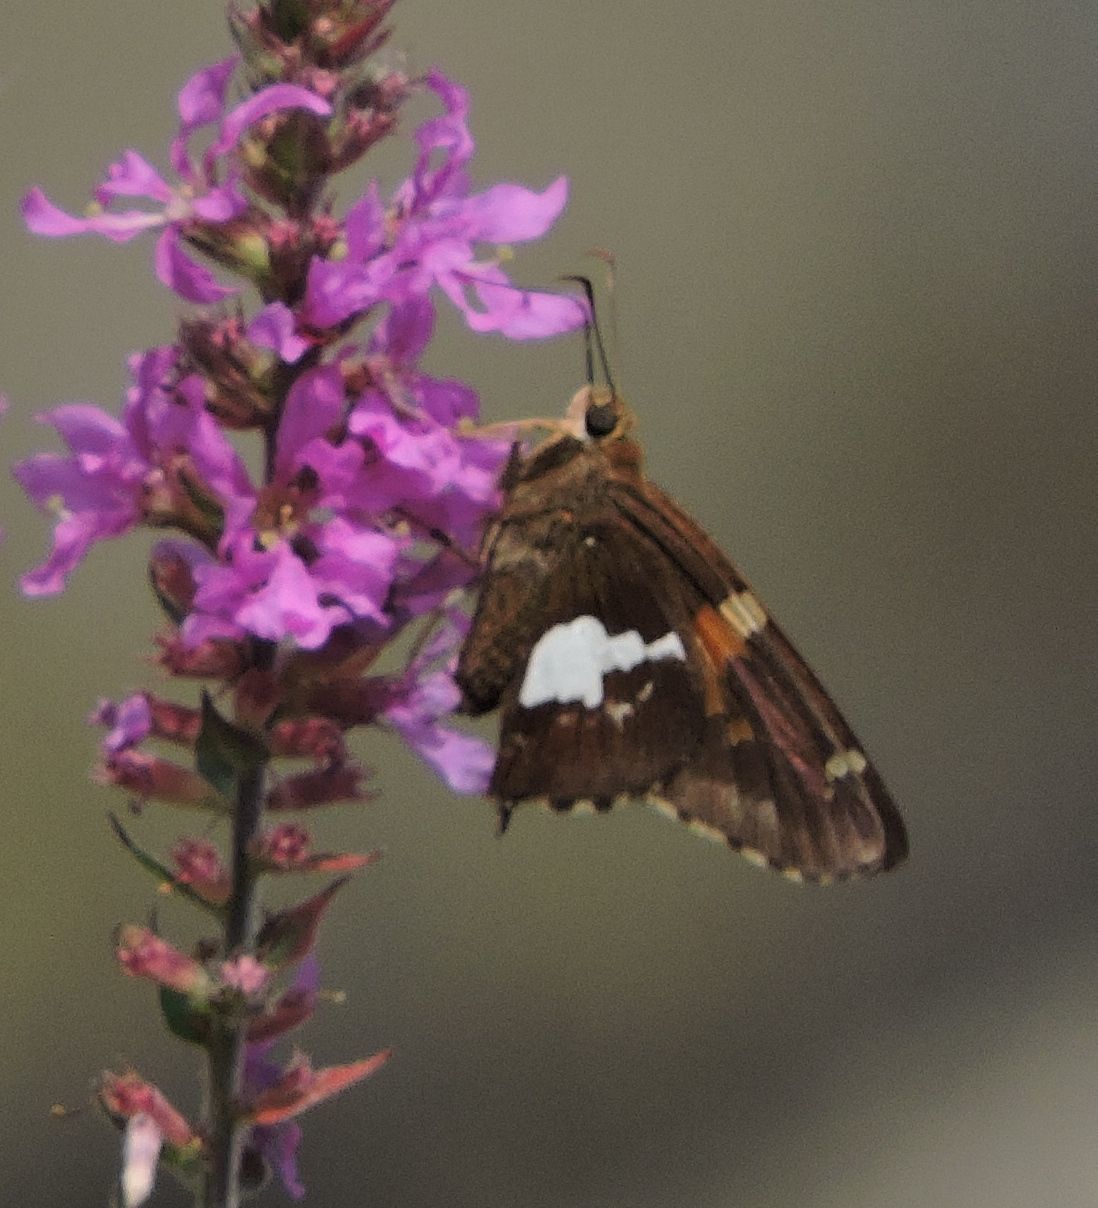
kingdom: Animalia
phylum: Arthropoda
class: Insecta
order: Lepidoptera
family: Hesperiidae
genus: Epargyreus
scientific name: Epargyreus clarus
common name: Silver-spotted skipper
